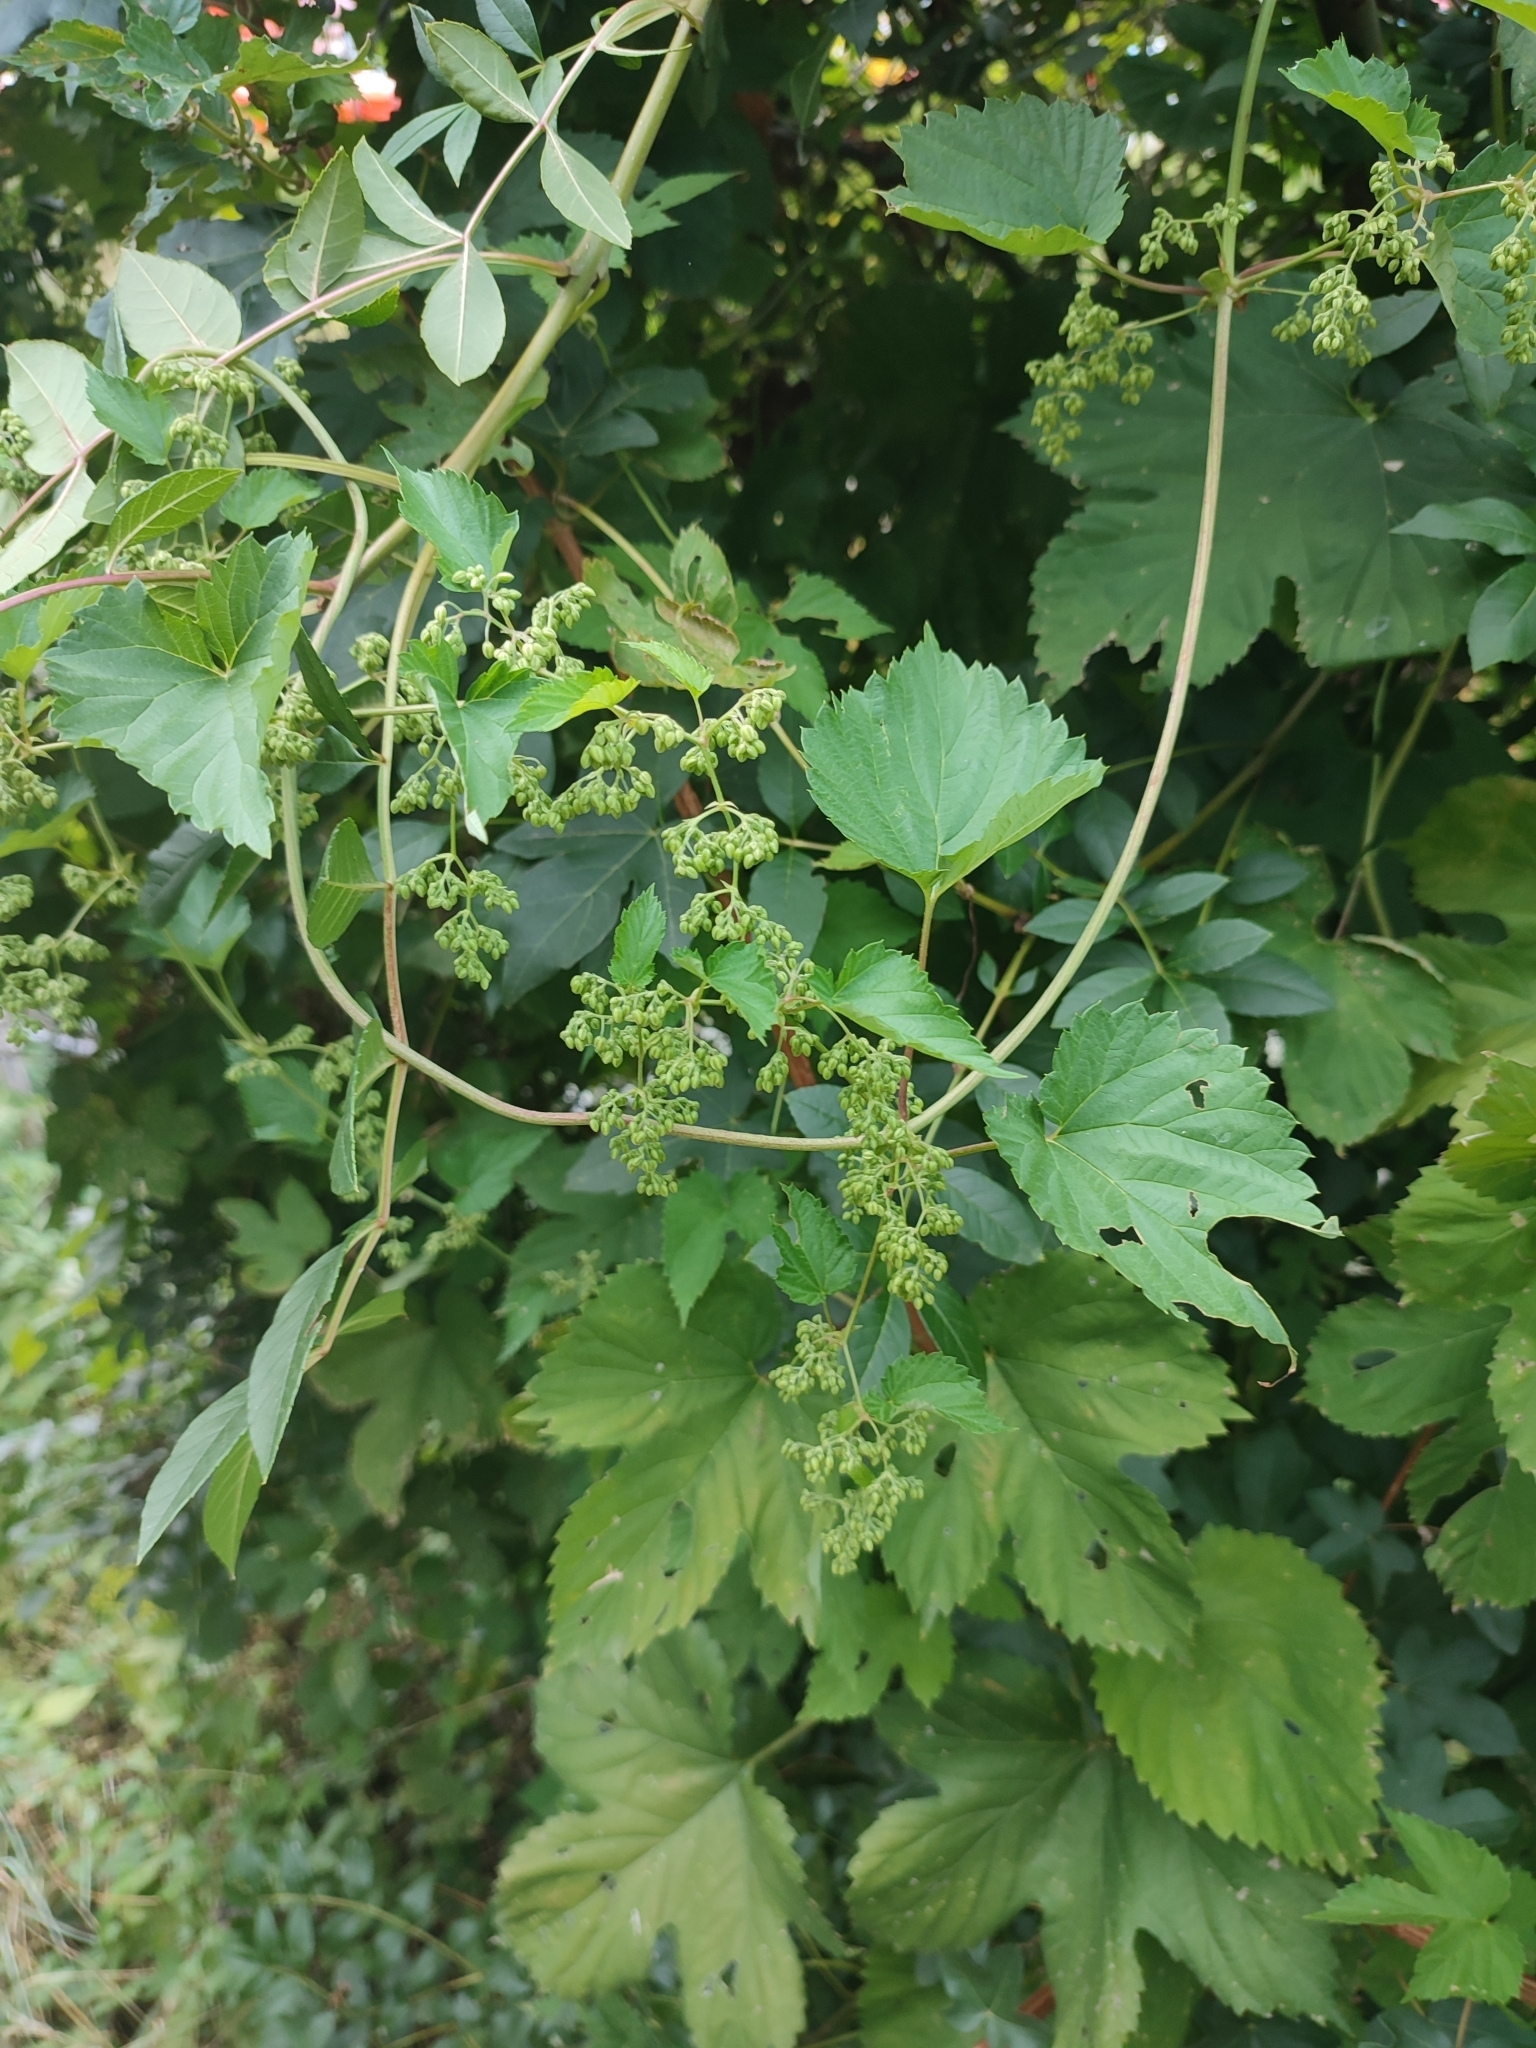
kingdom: Plantae
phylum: Tracheophyta
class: Magnoliopsida
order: Rosales
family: Cannabaceae
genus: Humulus
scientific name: Humulus lupulus
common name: Hop
